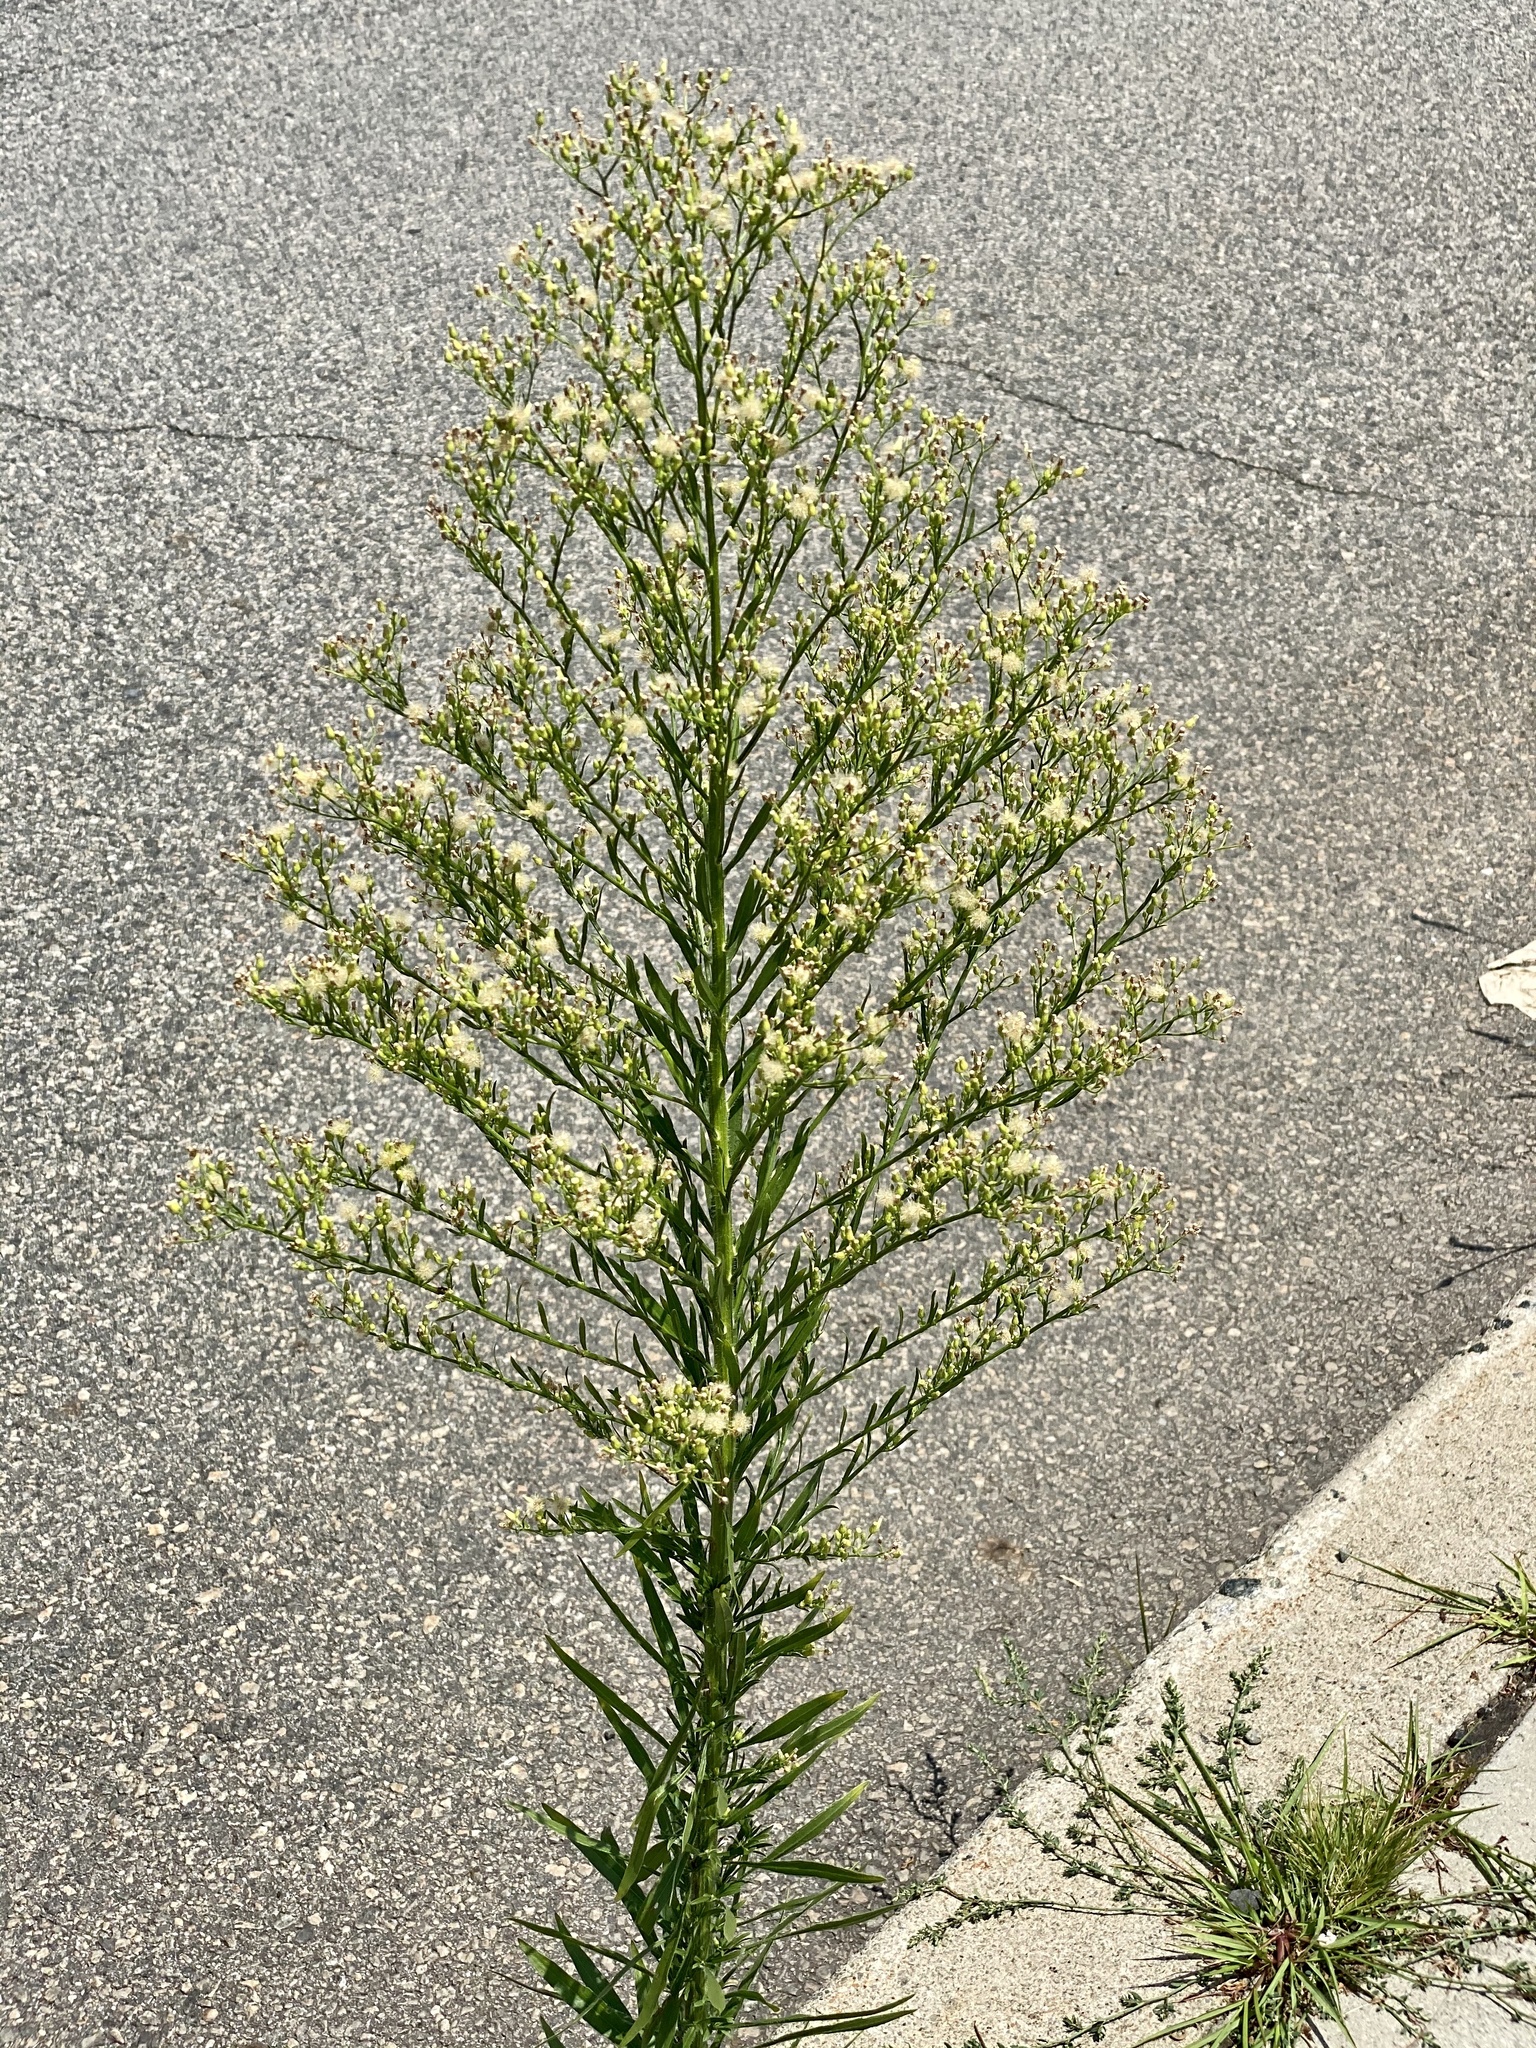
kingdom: Plantae
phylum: Tracheophyta
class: Magnoliopsida
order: Asterales
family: Asteraceae
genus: Erigeron
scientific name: Erigeron canadensis
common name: Canadian fleabane
